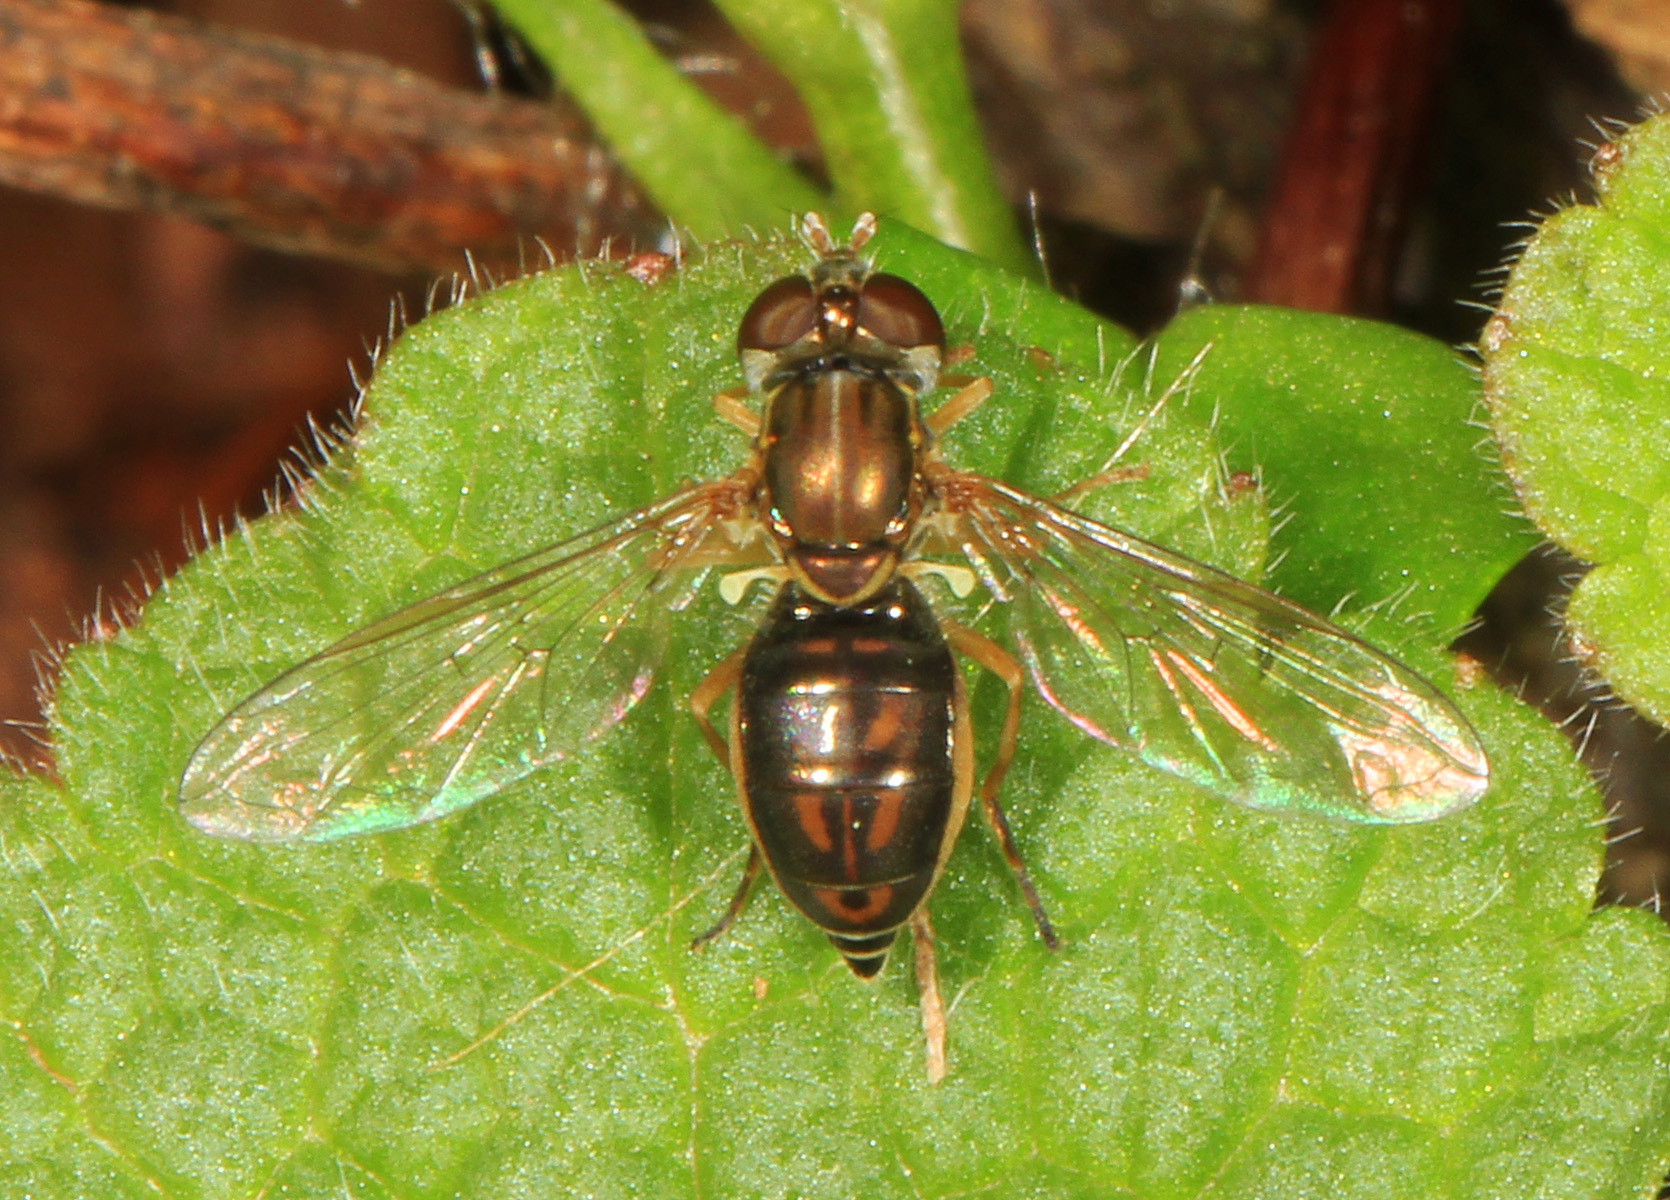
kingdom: Animalia
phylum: Arthropoda
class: Insecta
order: Diptera
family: Syrphidae
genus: Toxomerus
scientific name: Toxomerus marginatus
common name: Syrphid fly
